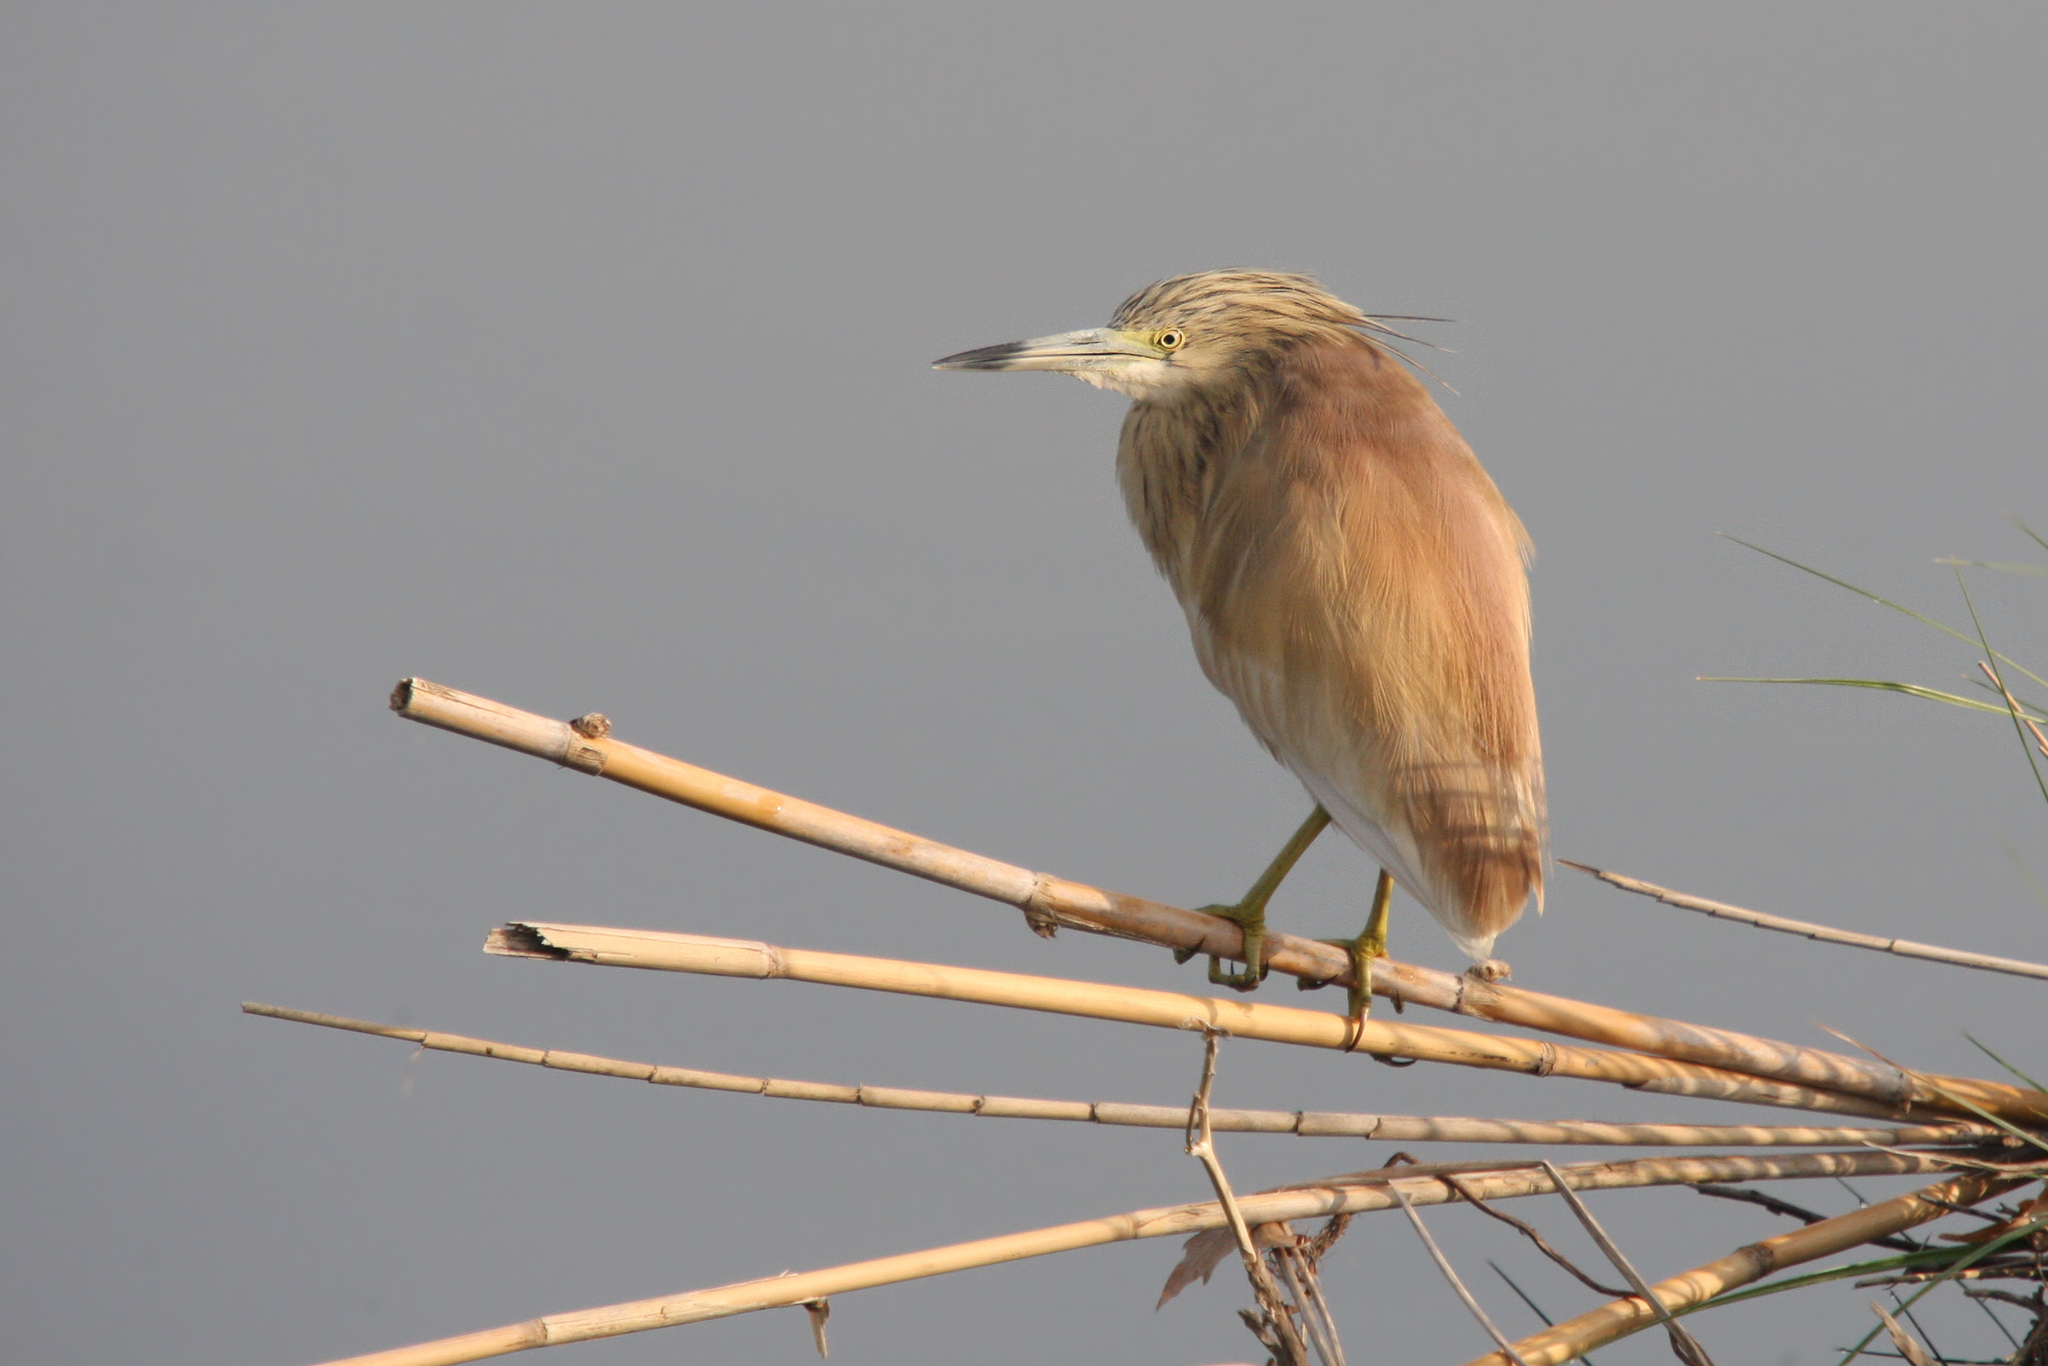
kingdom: Animalia
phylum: Chordata
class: Aves
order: Pelecaniformes
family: Ardeidae
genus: Ardeola
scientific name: Ardeola ralloides
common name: Squacco heron
